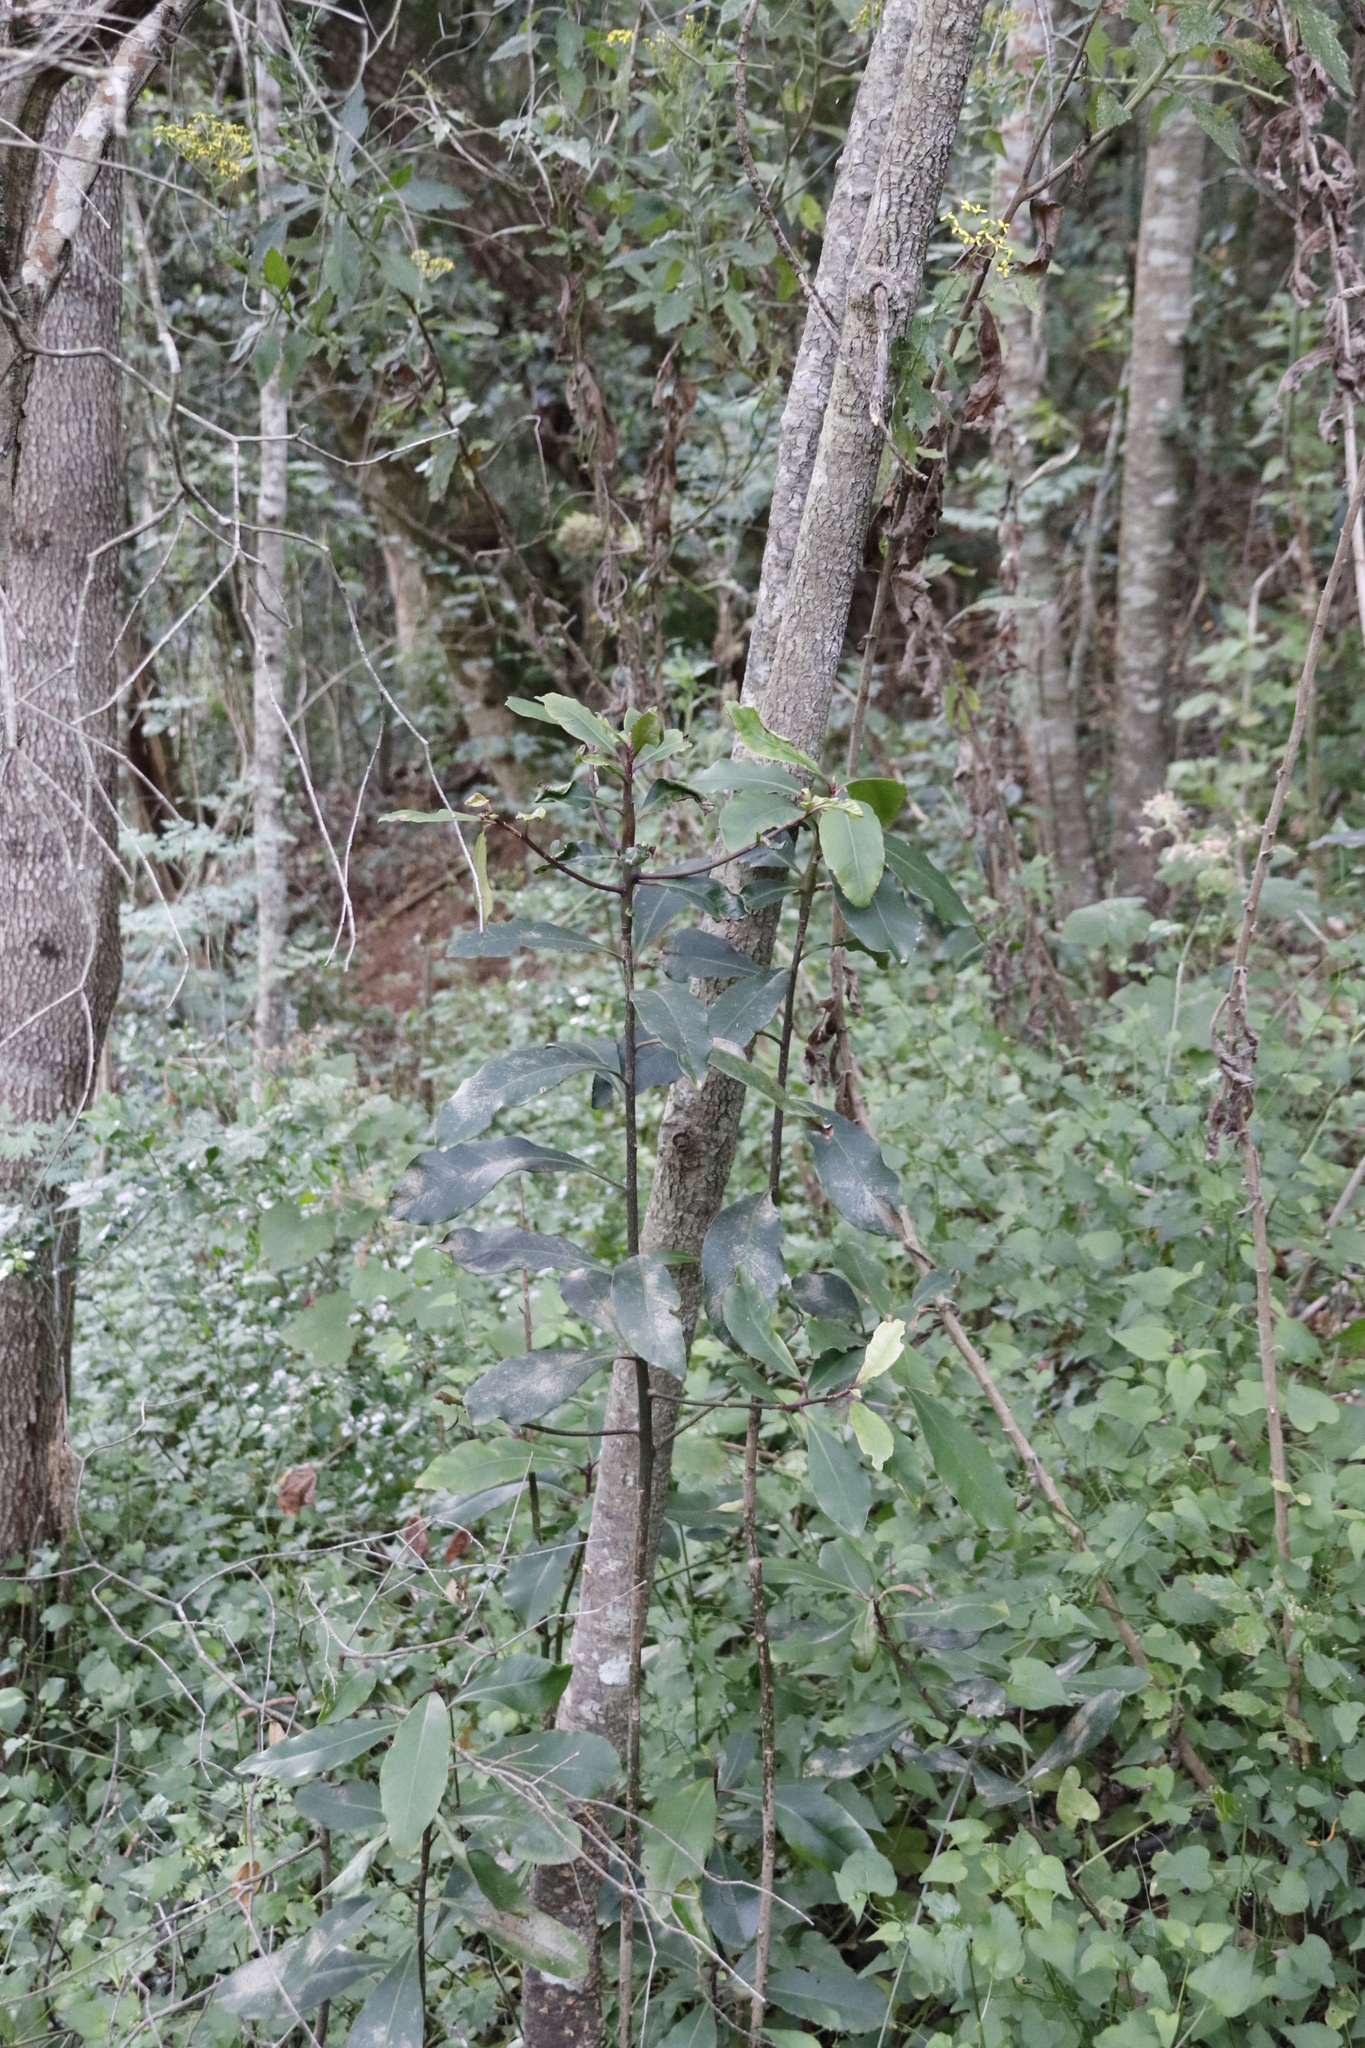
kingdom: Plantae
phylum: Tracheophyta
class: Magnoliopsida
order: Ericales
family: Primulaceae
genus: Myrsine
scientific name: Myrsine melanophloeos
